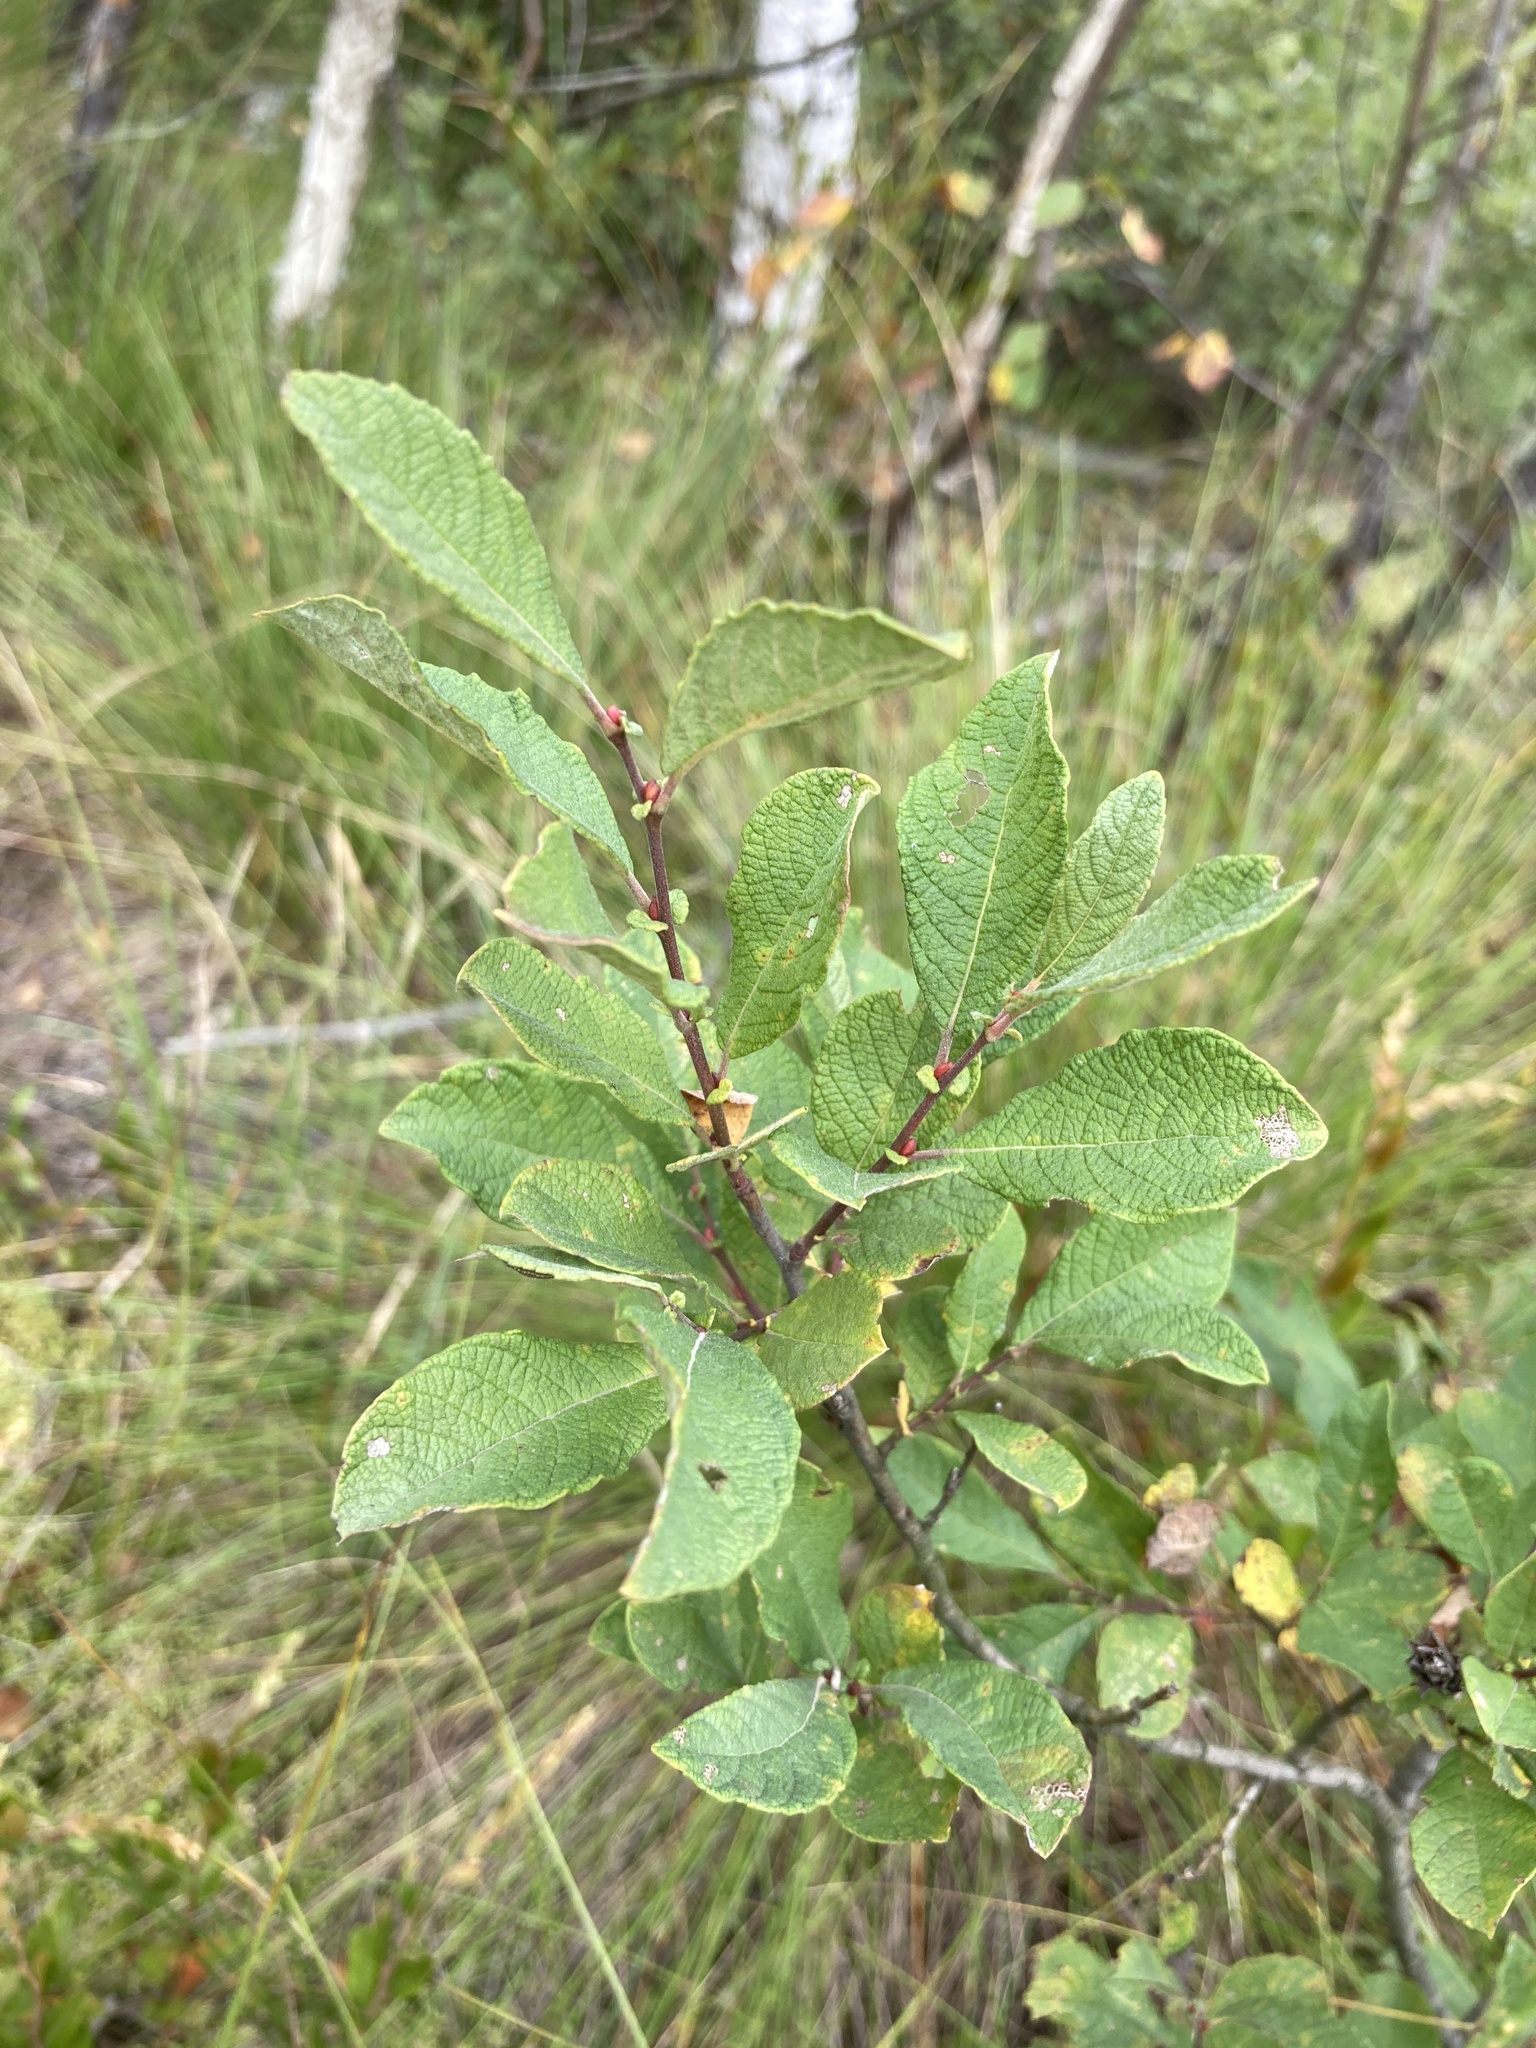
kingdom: Plantae
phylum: Tracheophyta
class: Magnoliopsida
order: Malpighiales
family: Salicaceae
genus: Salix
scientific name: Salix aurita
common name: Eared willow
